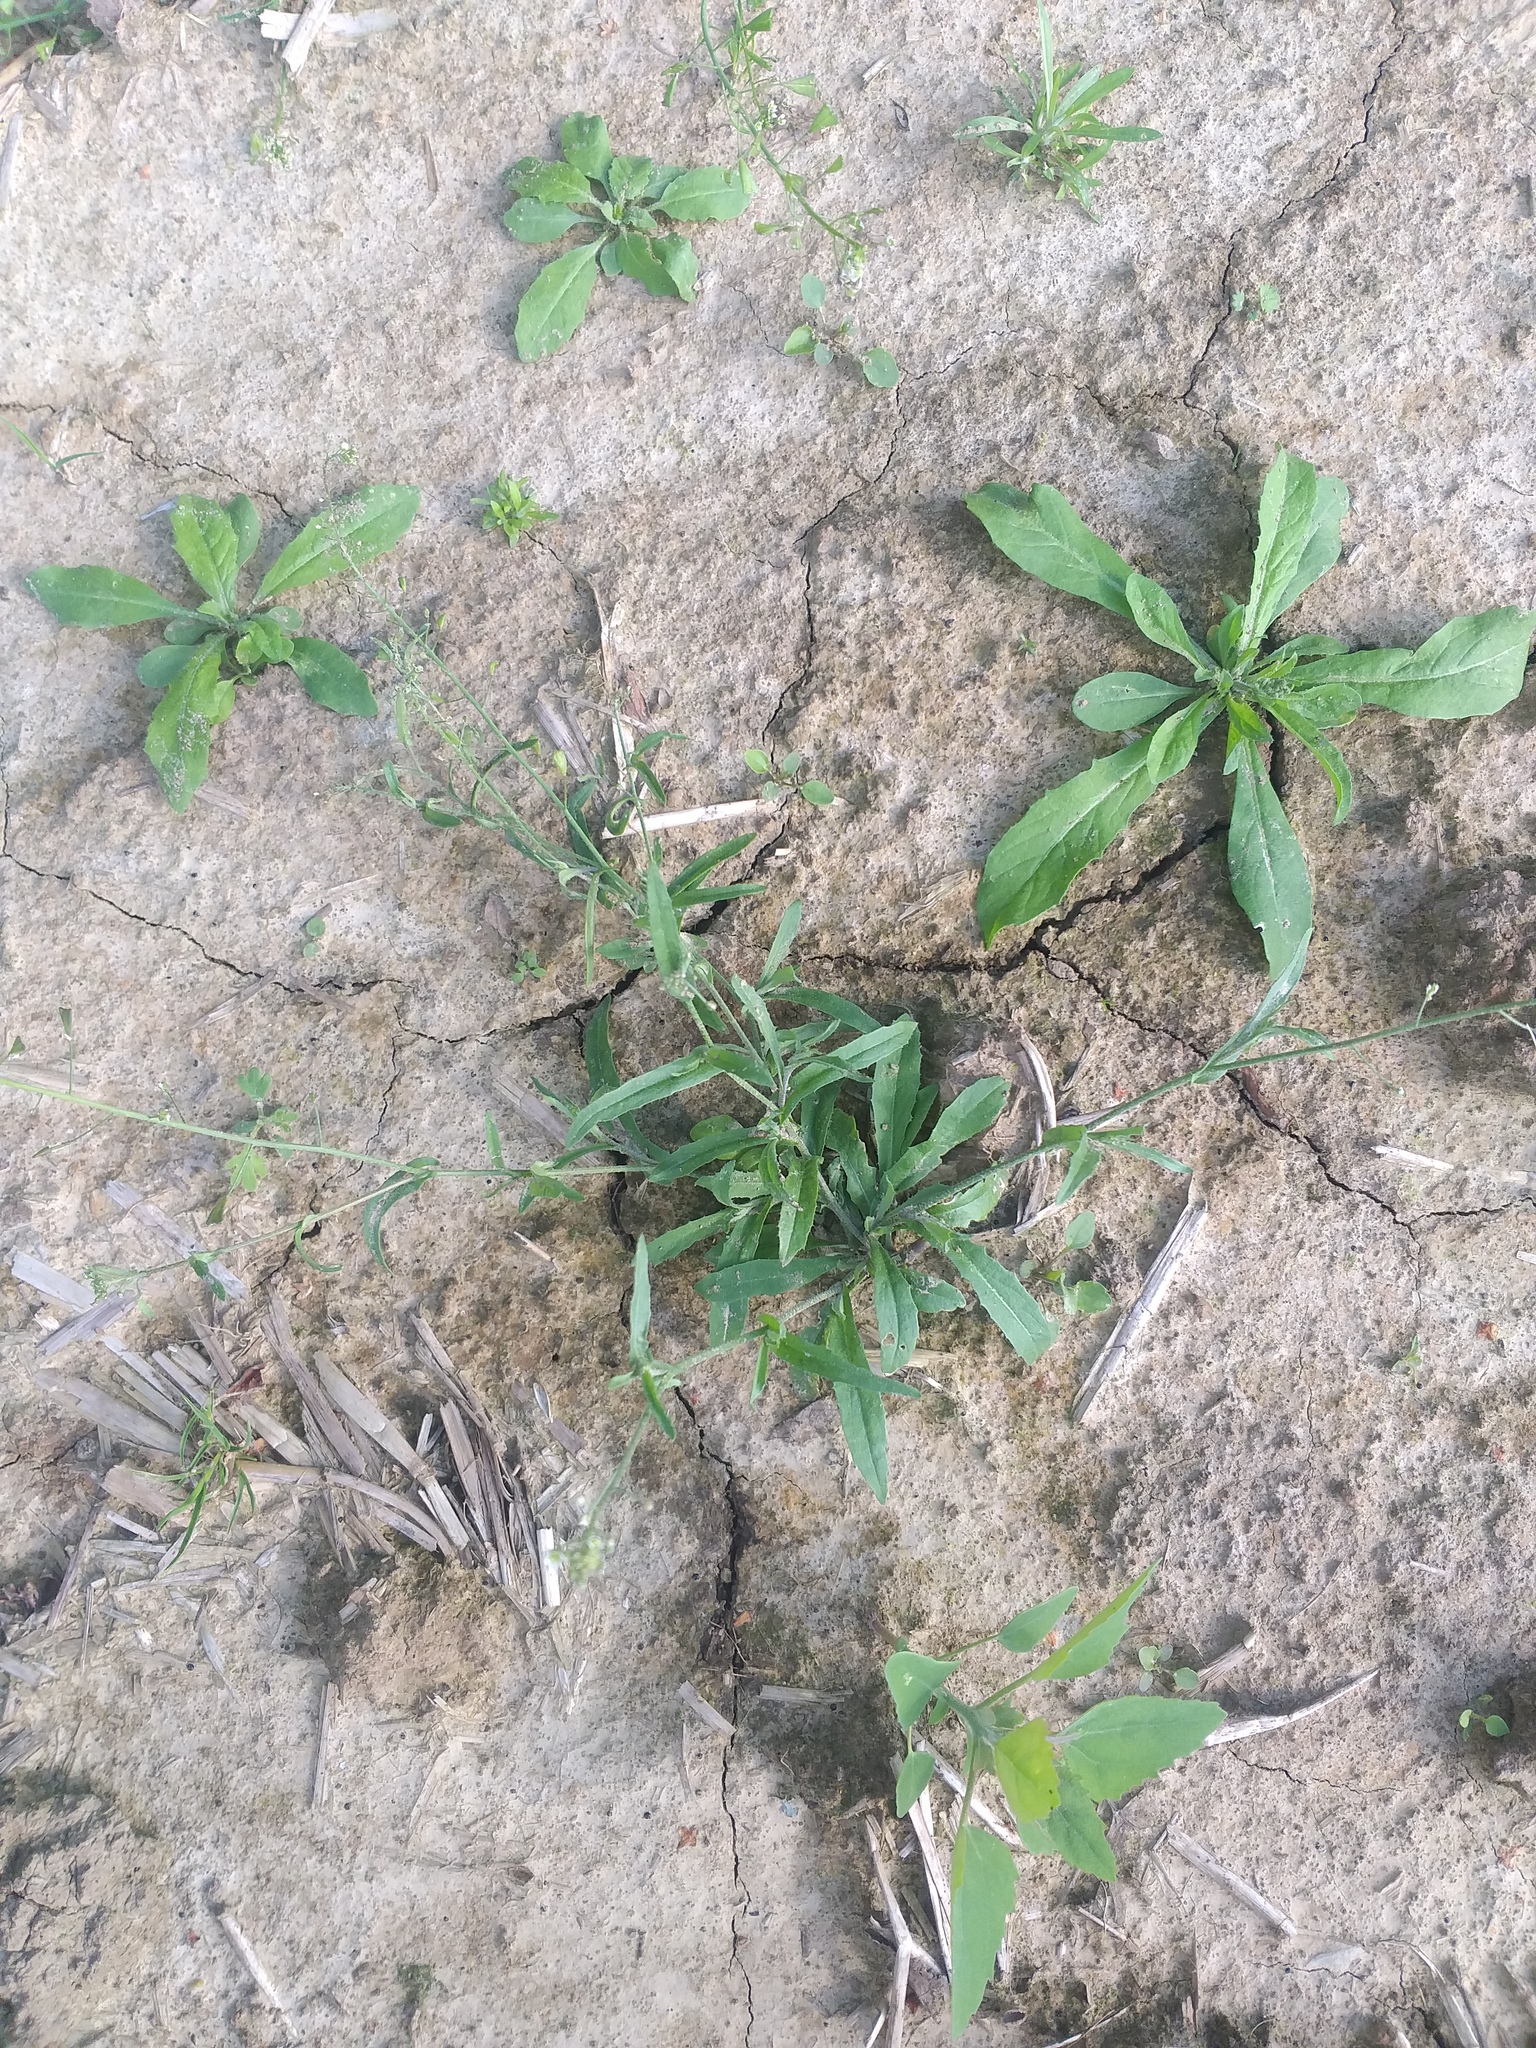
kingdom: Plantae
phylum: Tracheophyta
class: Magnoliopsida
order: Brassicales
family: Brassicaceae
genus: Capsella
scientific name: Capsella bursa-pastoris
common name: Shepherd's purse
